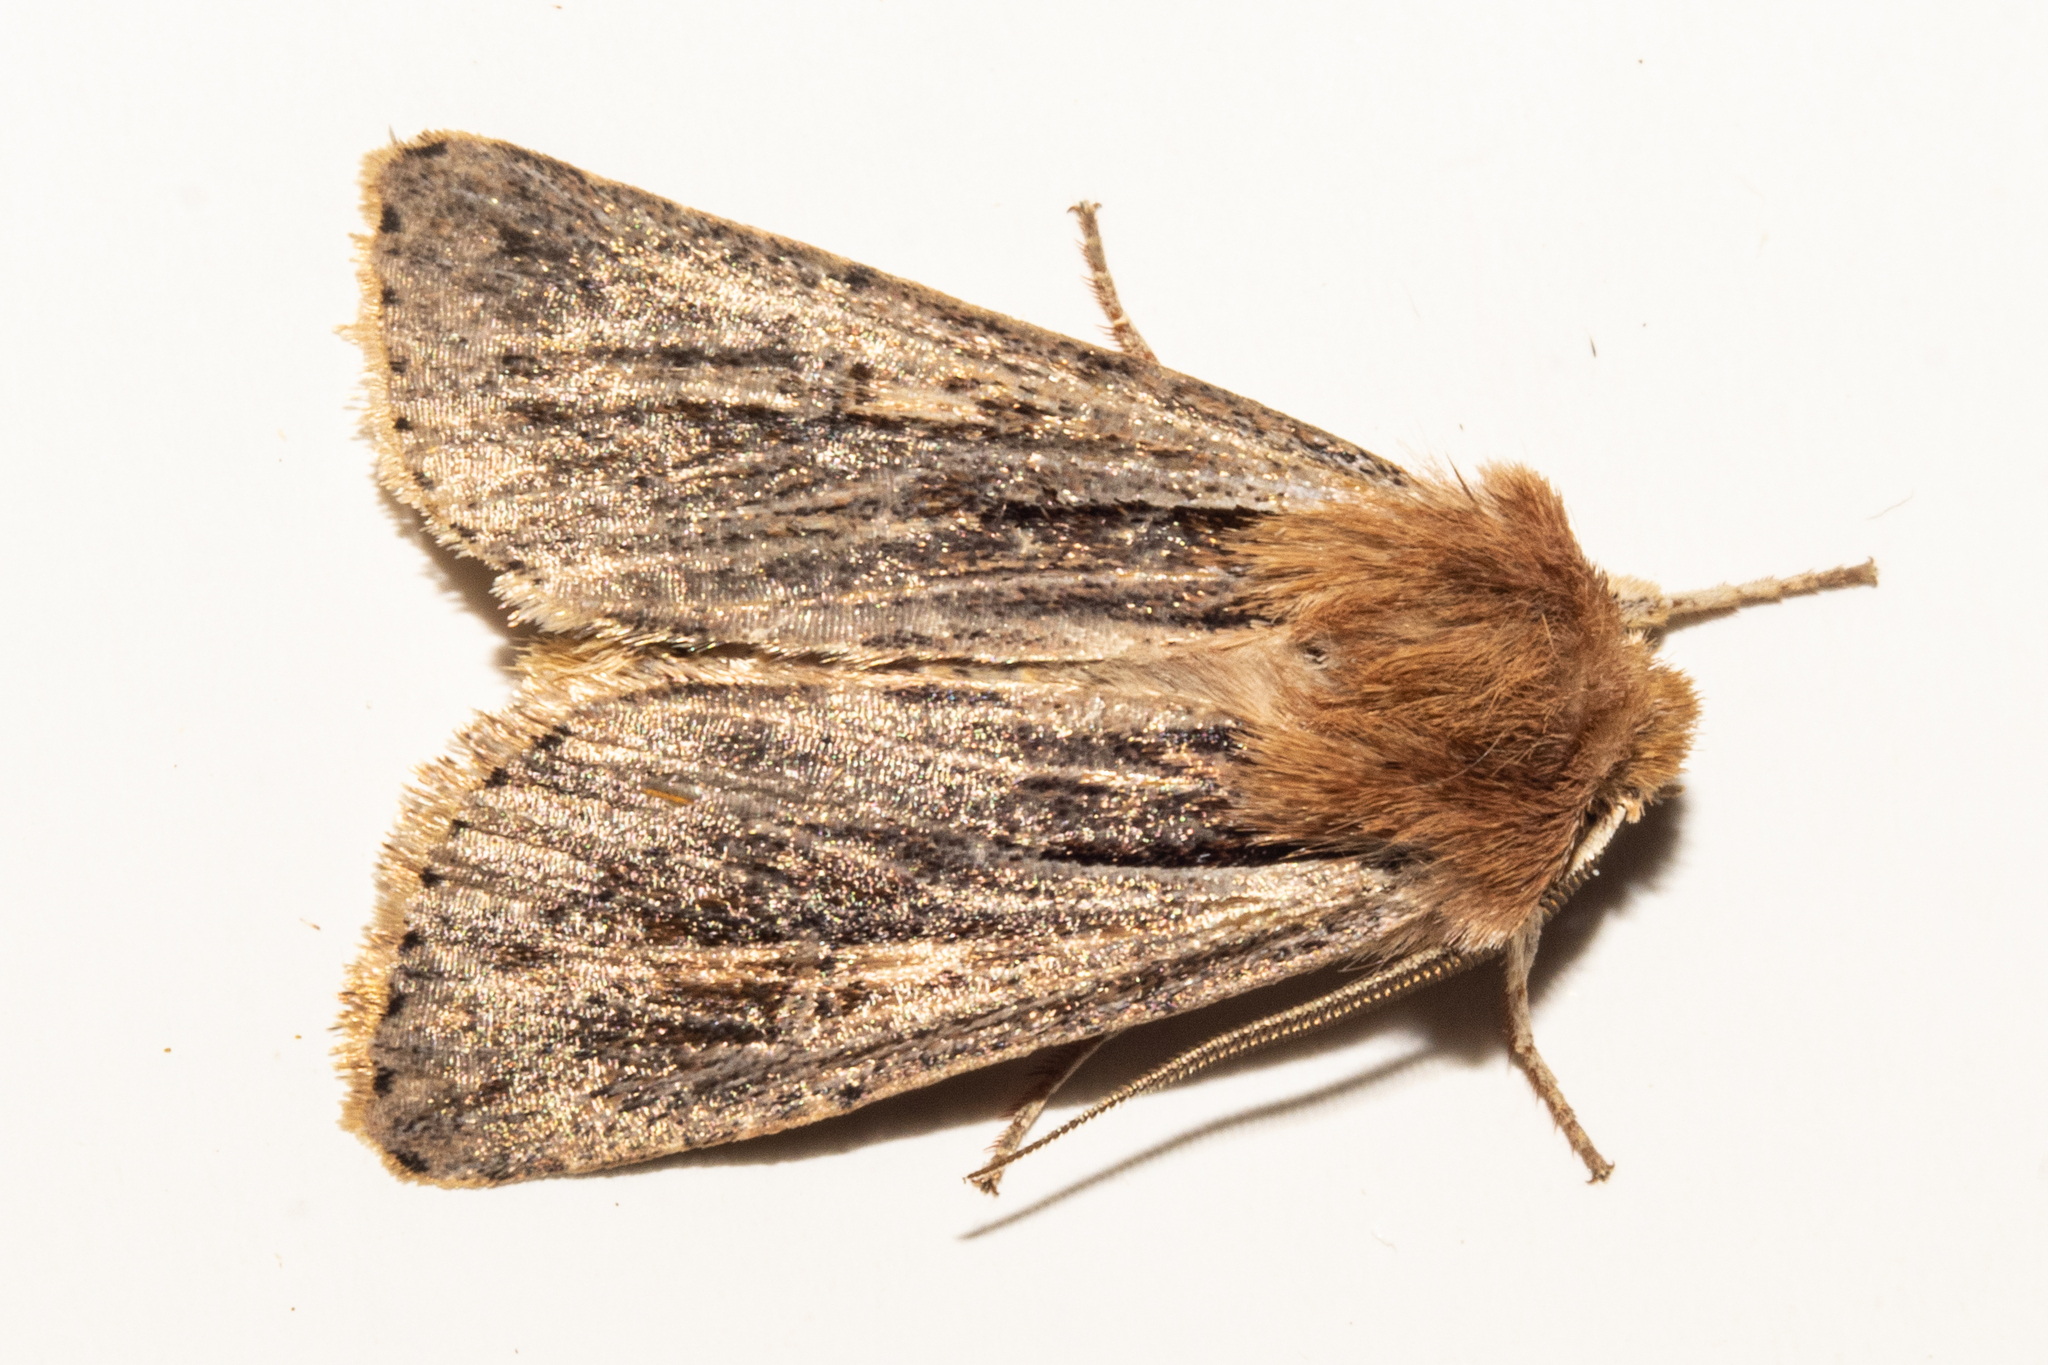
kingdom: Animalia
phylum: Arthropoda
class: Insecta
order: Lepidoptera
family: Noctuidae
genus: Ichneutica
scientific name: Ichneutica propria
